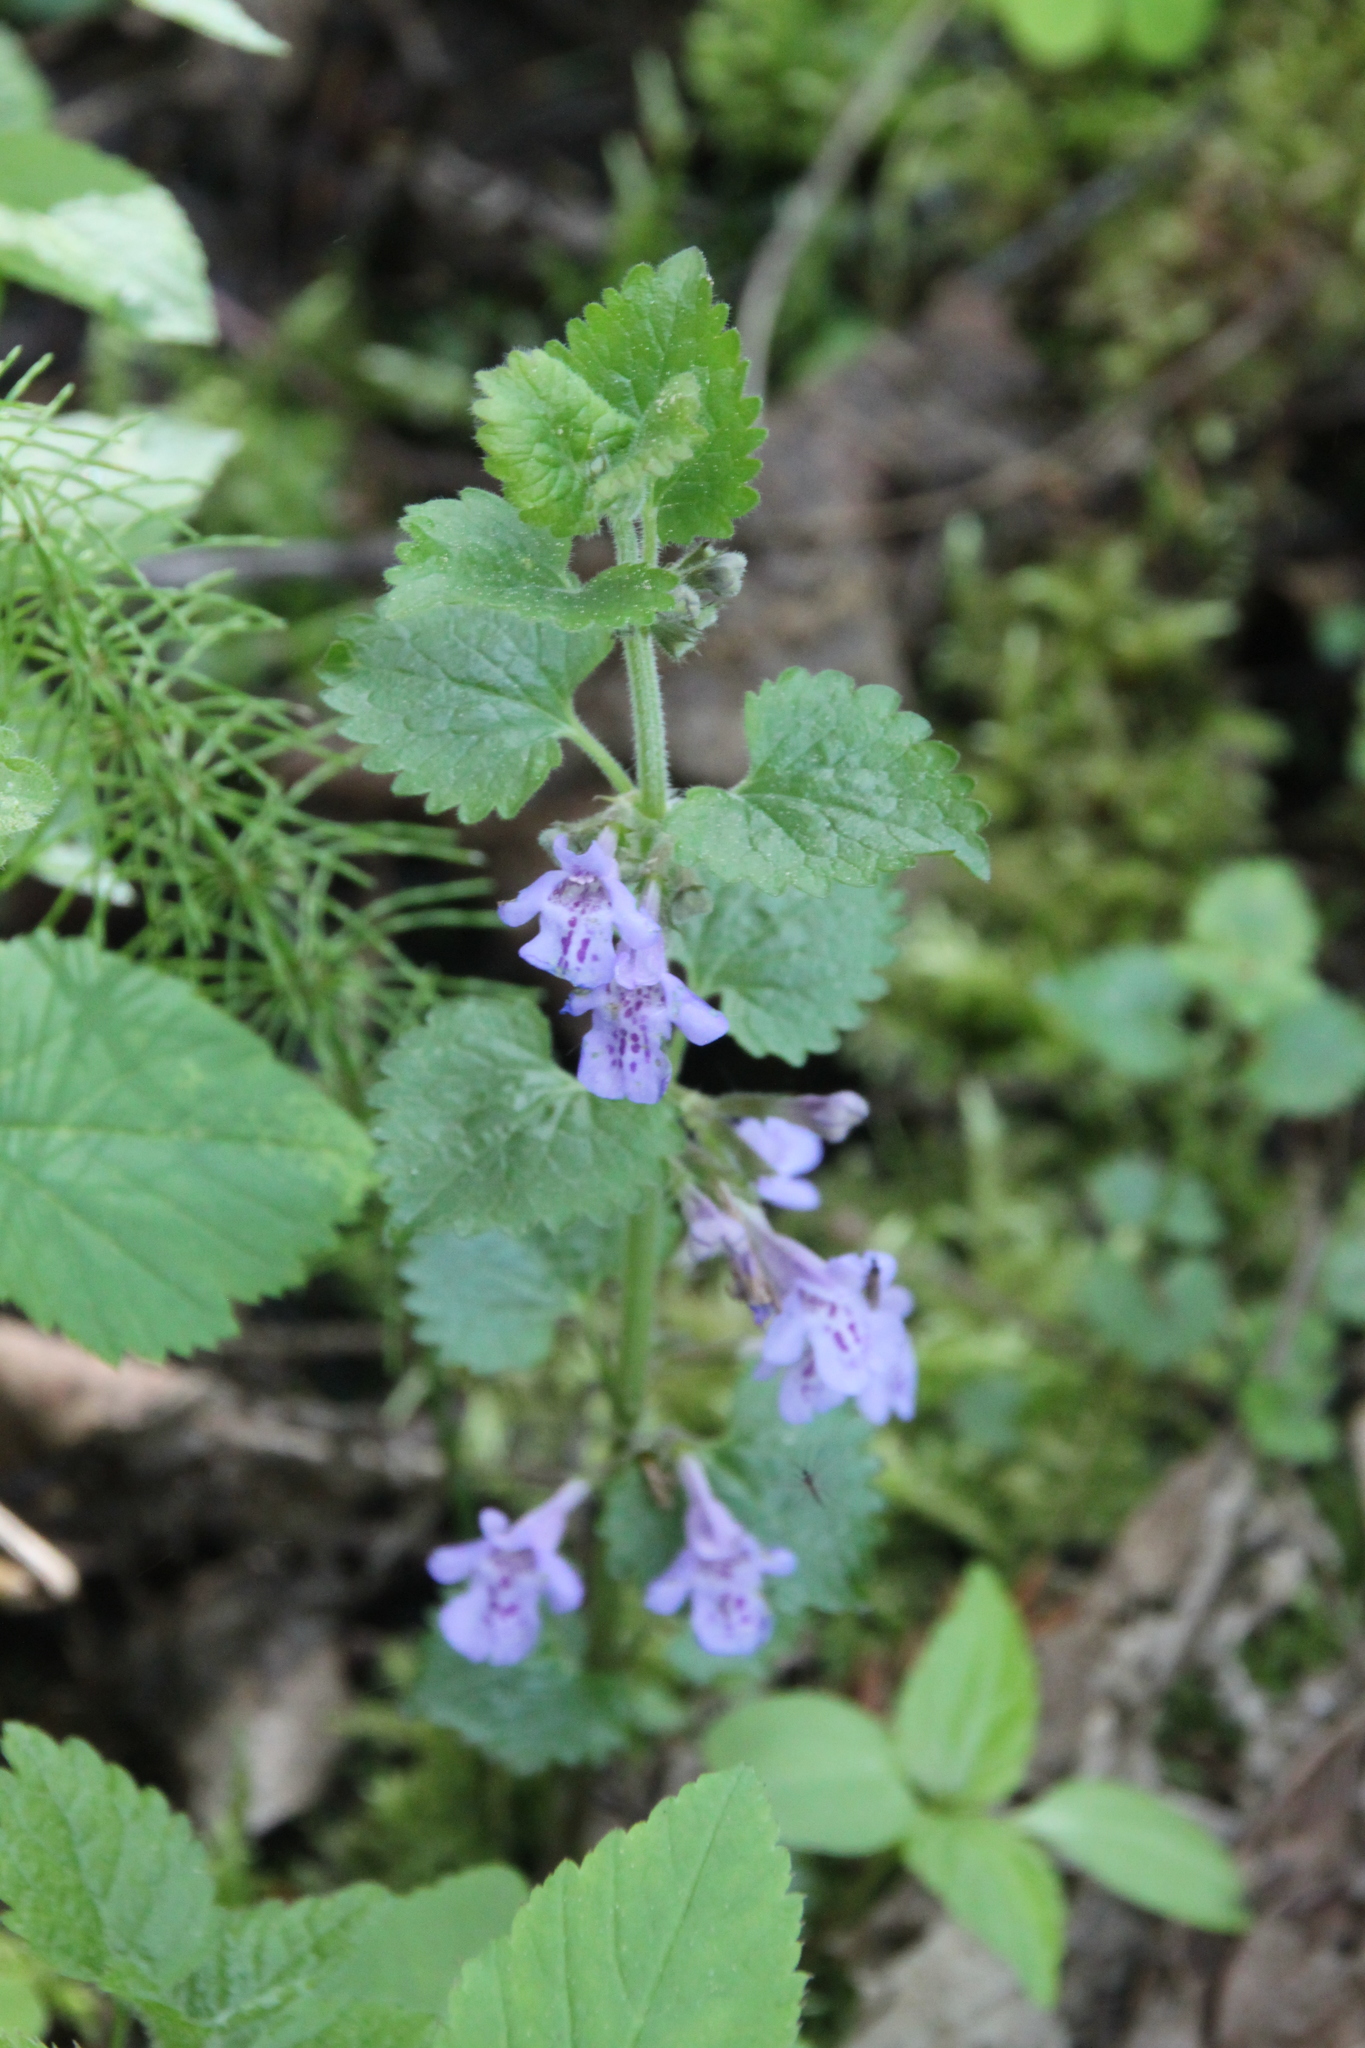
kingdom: Plantae
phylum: Tracheophyta
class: Magnoliopsida
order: Lamiales
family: Lamiaceae
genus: Glechoma
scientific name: Glechoma hederacea
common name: Ground ivy
